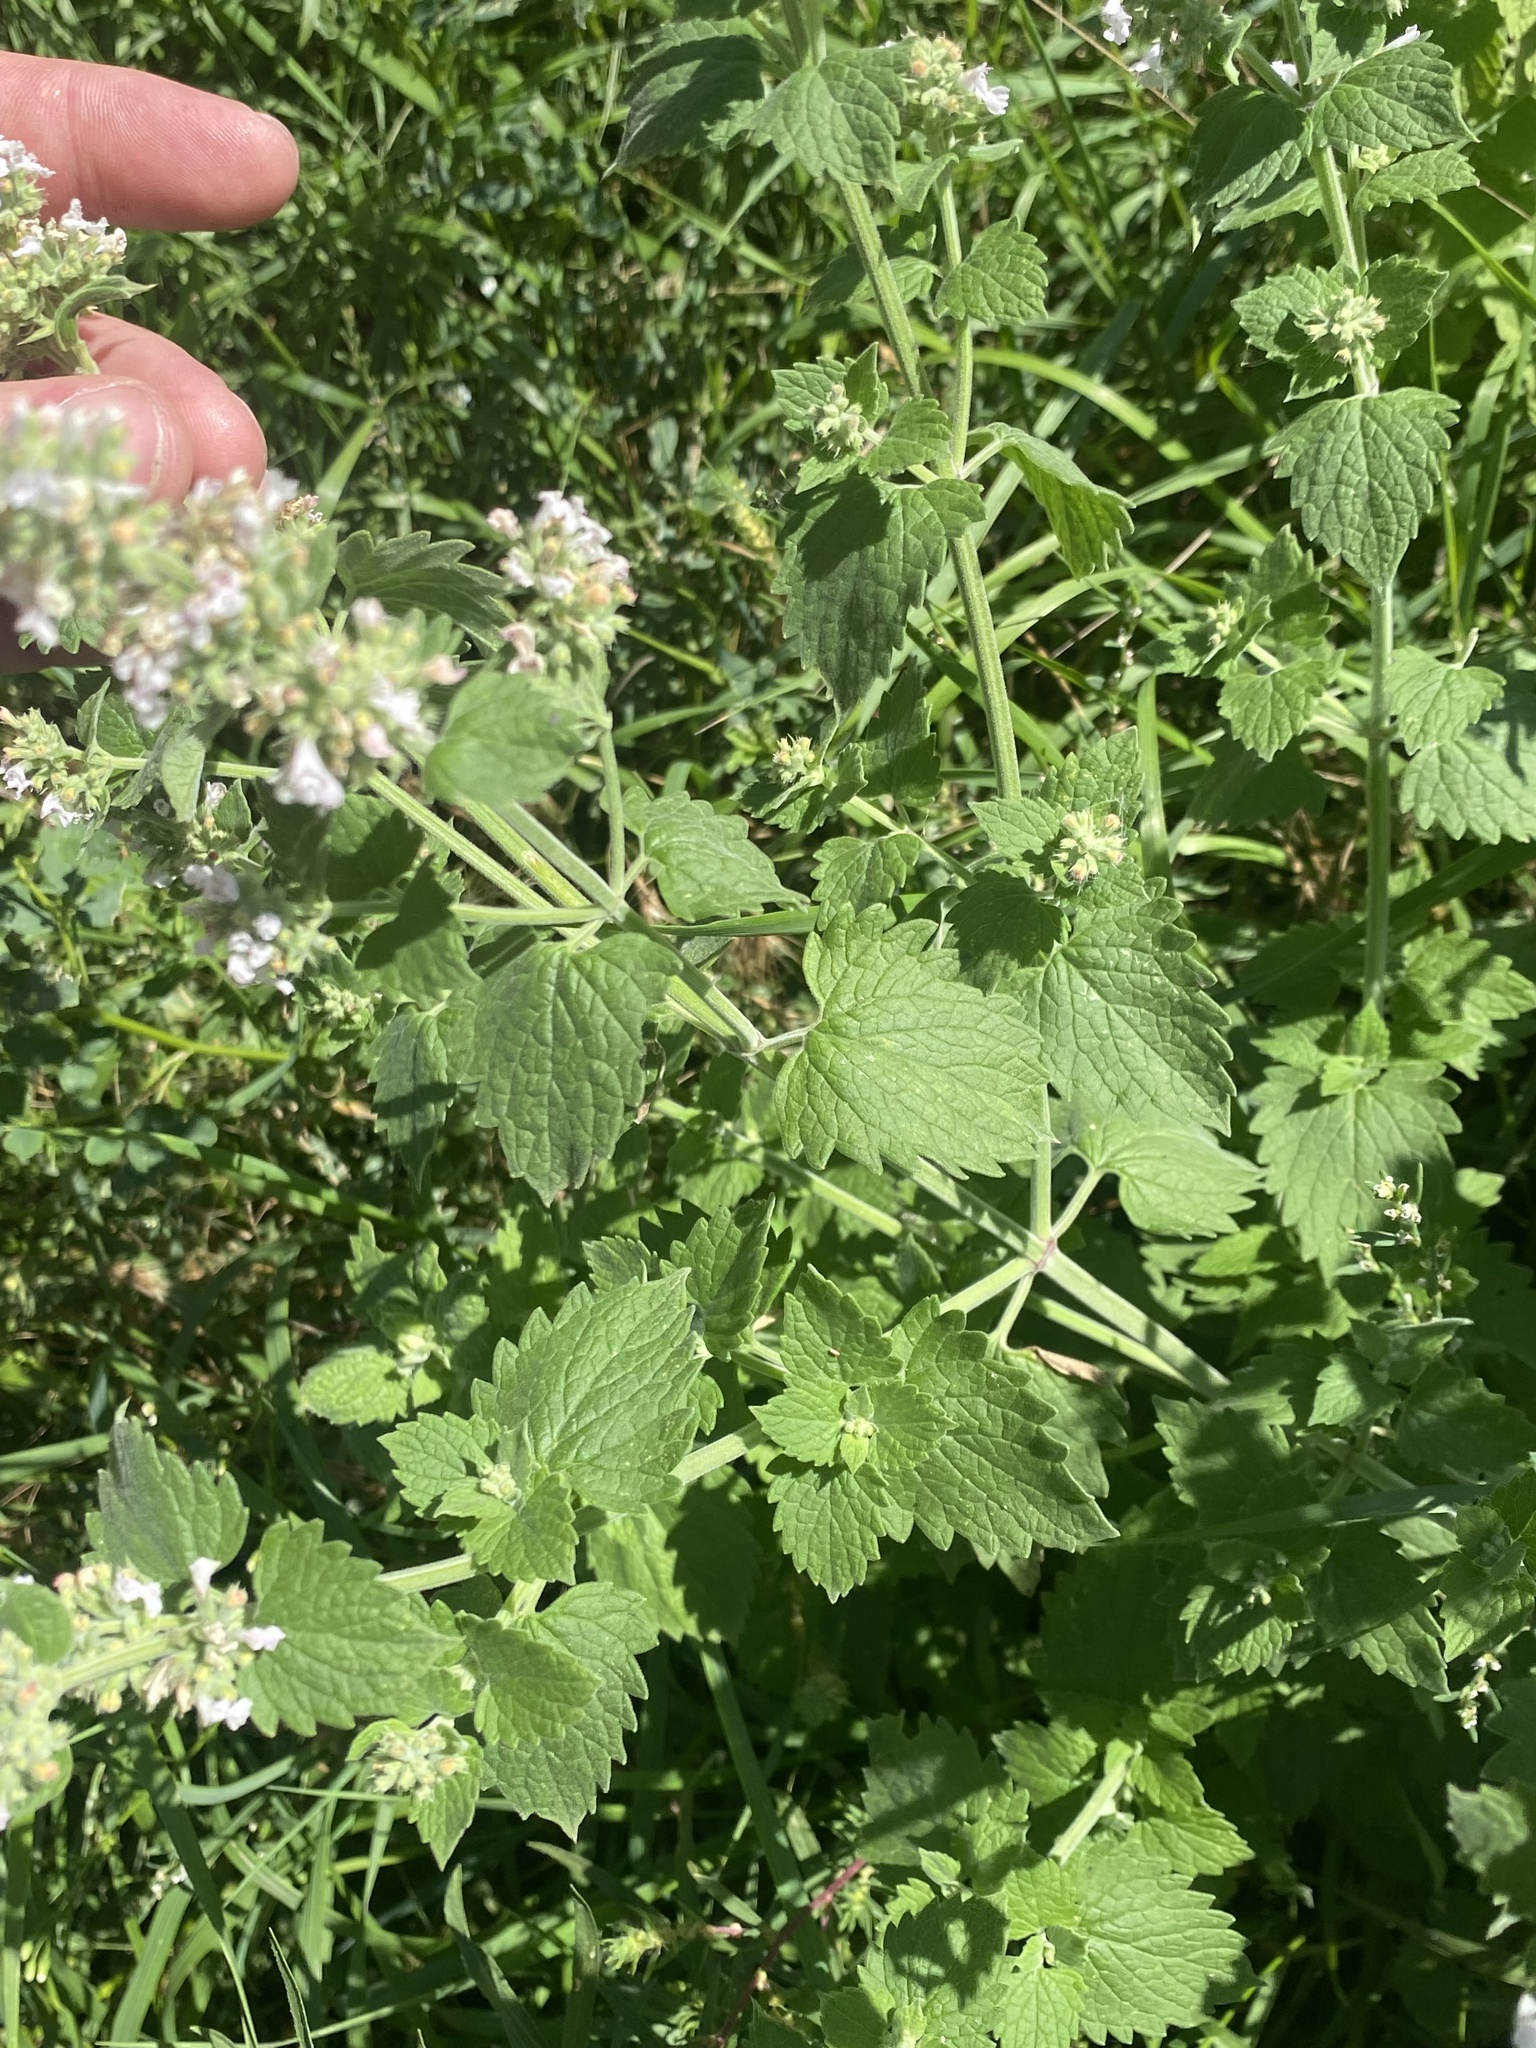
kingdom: Plantae
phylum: Tracheophyta
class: Magnoliopsida
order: Lamiales
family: Lamiaceae
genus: Nepeta
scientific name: Nepeta cataria
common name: Catnip
